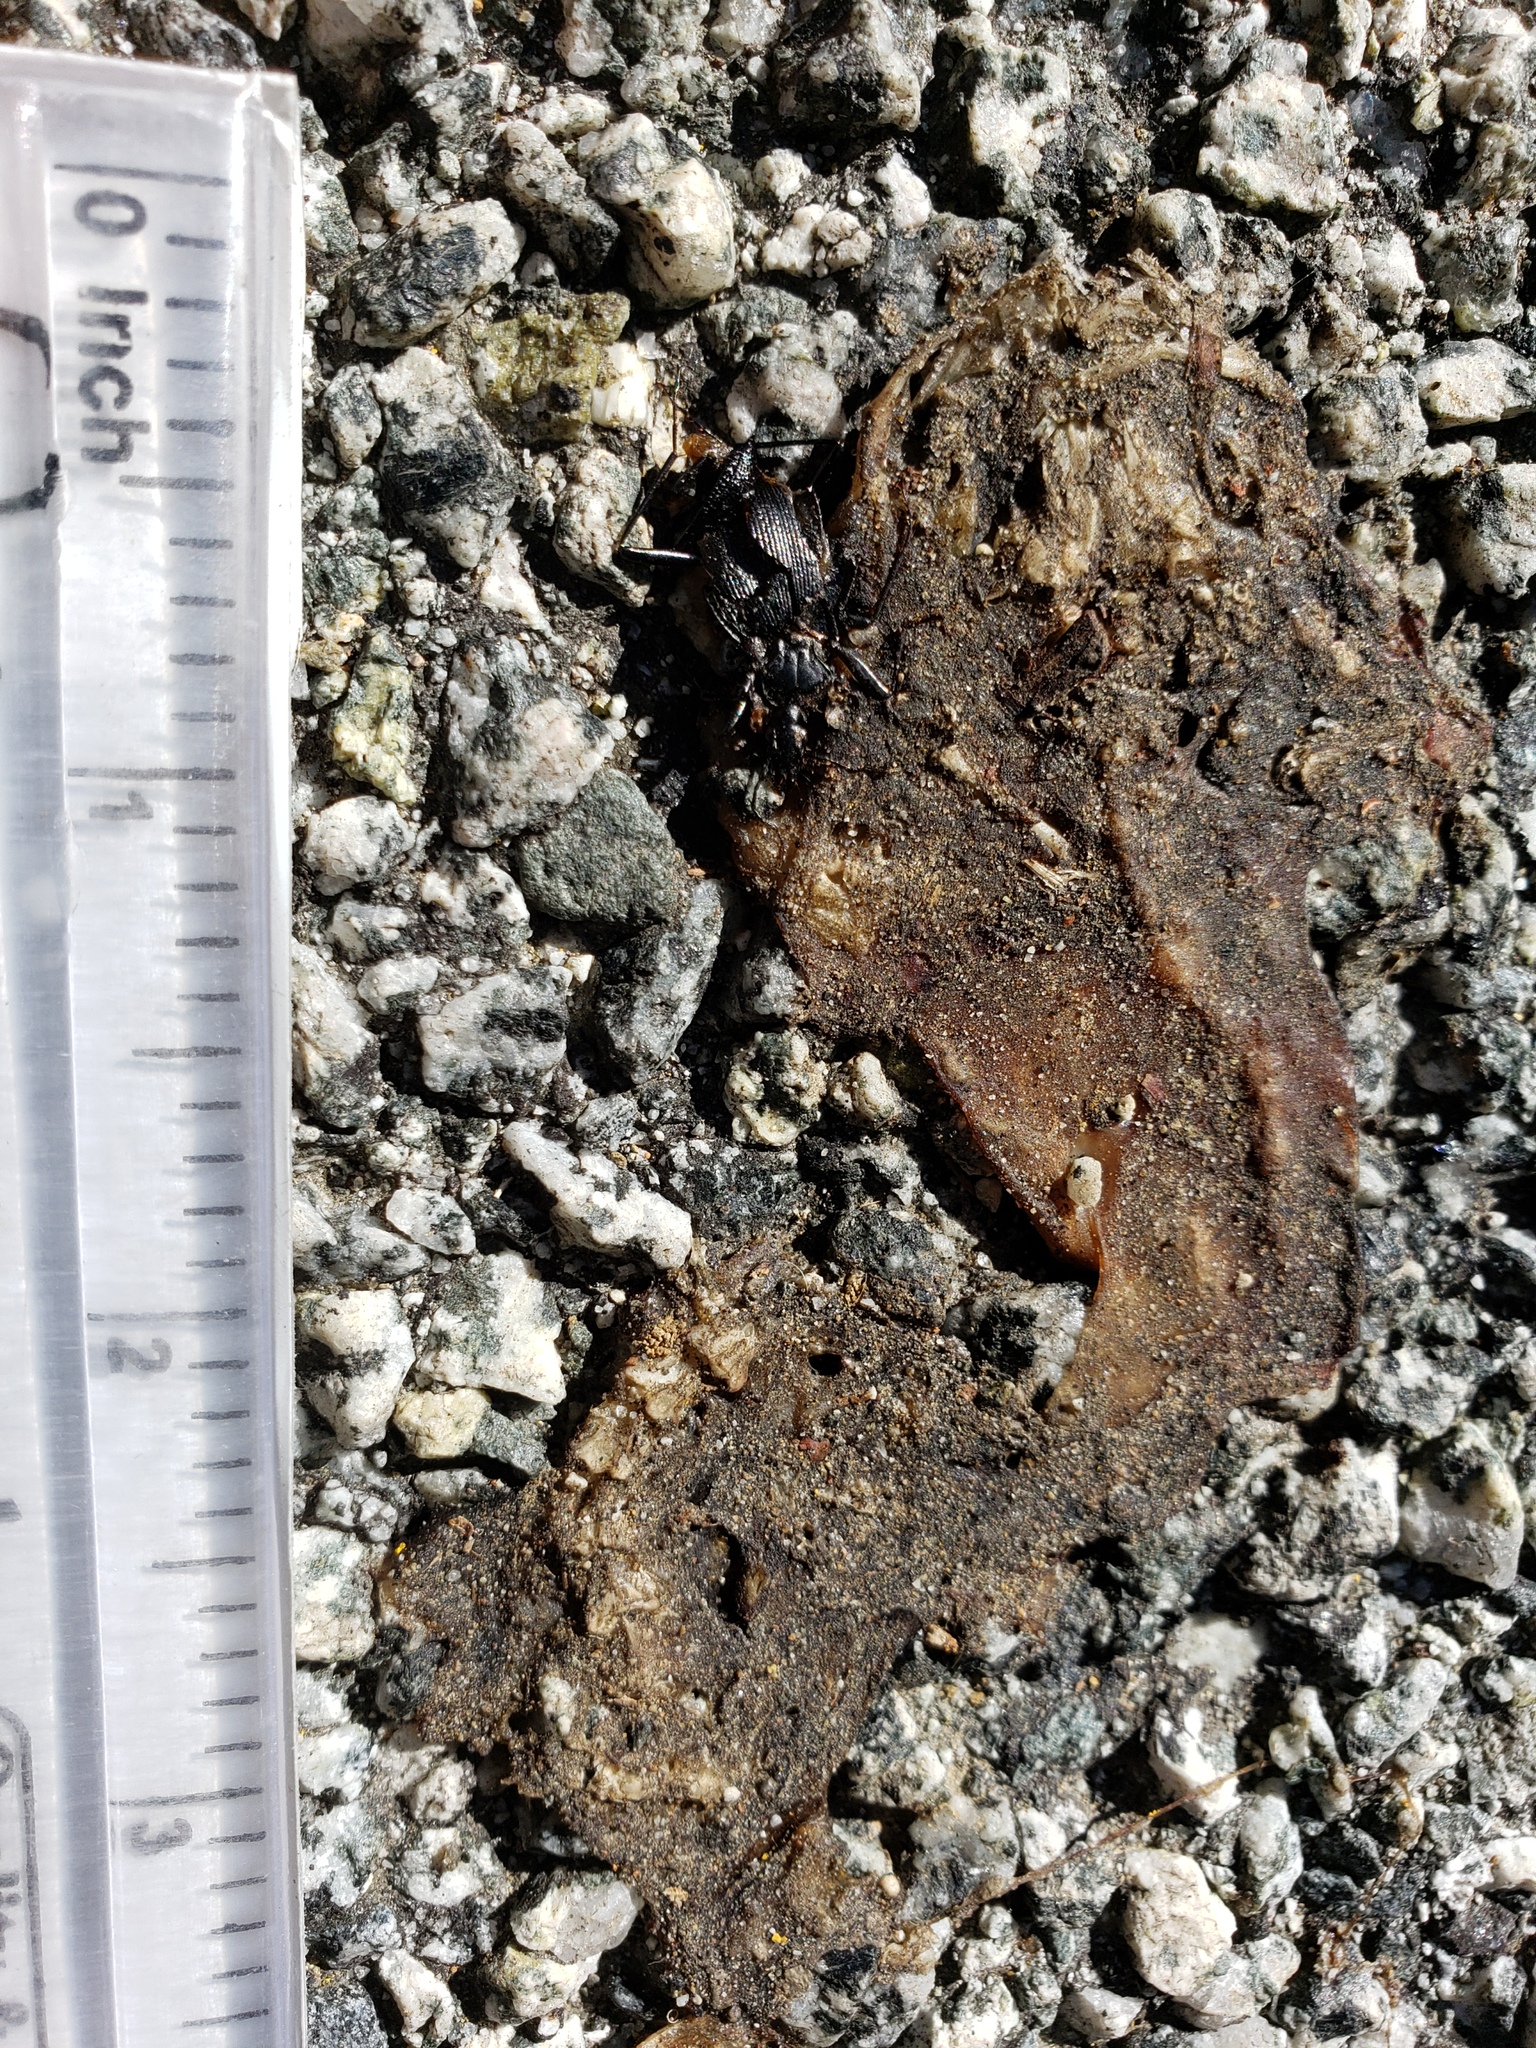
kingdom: Animalia
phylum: Chordata
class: Amphibia
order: Caudata
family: Salamandridae
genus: Taricha
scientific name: Taricha
